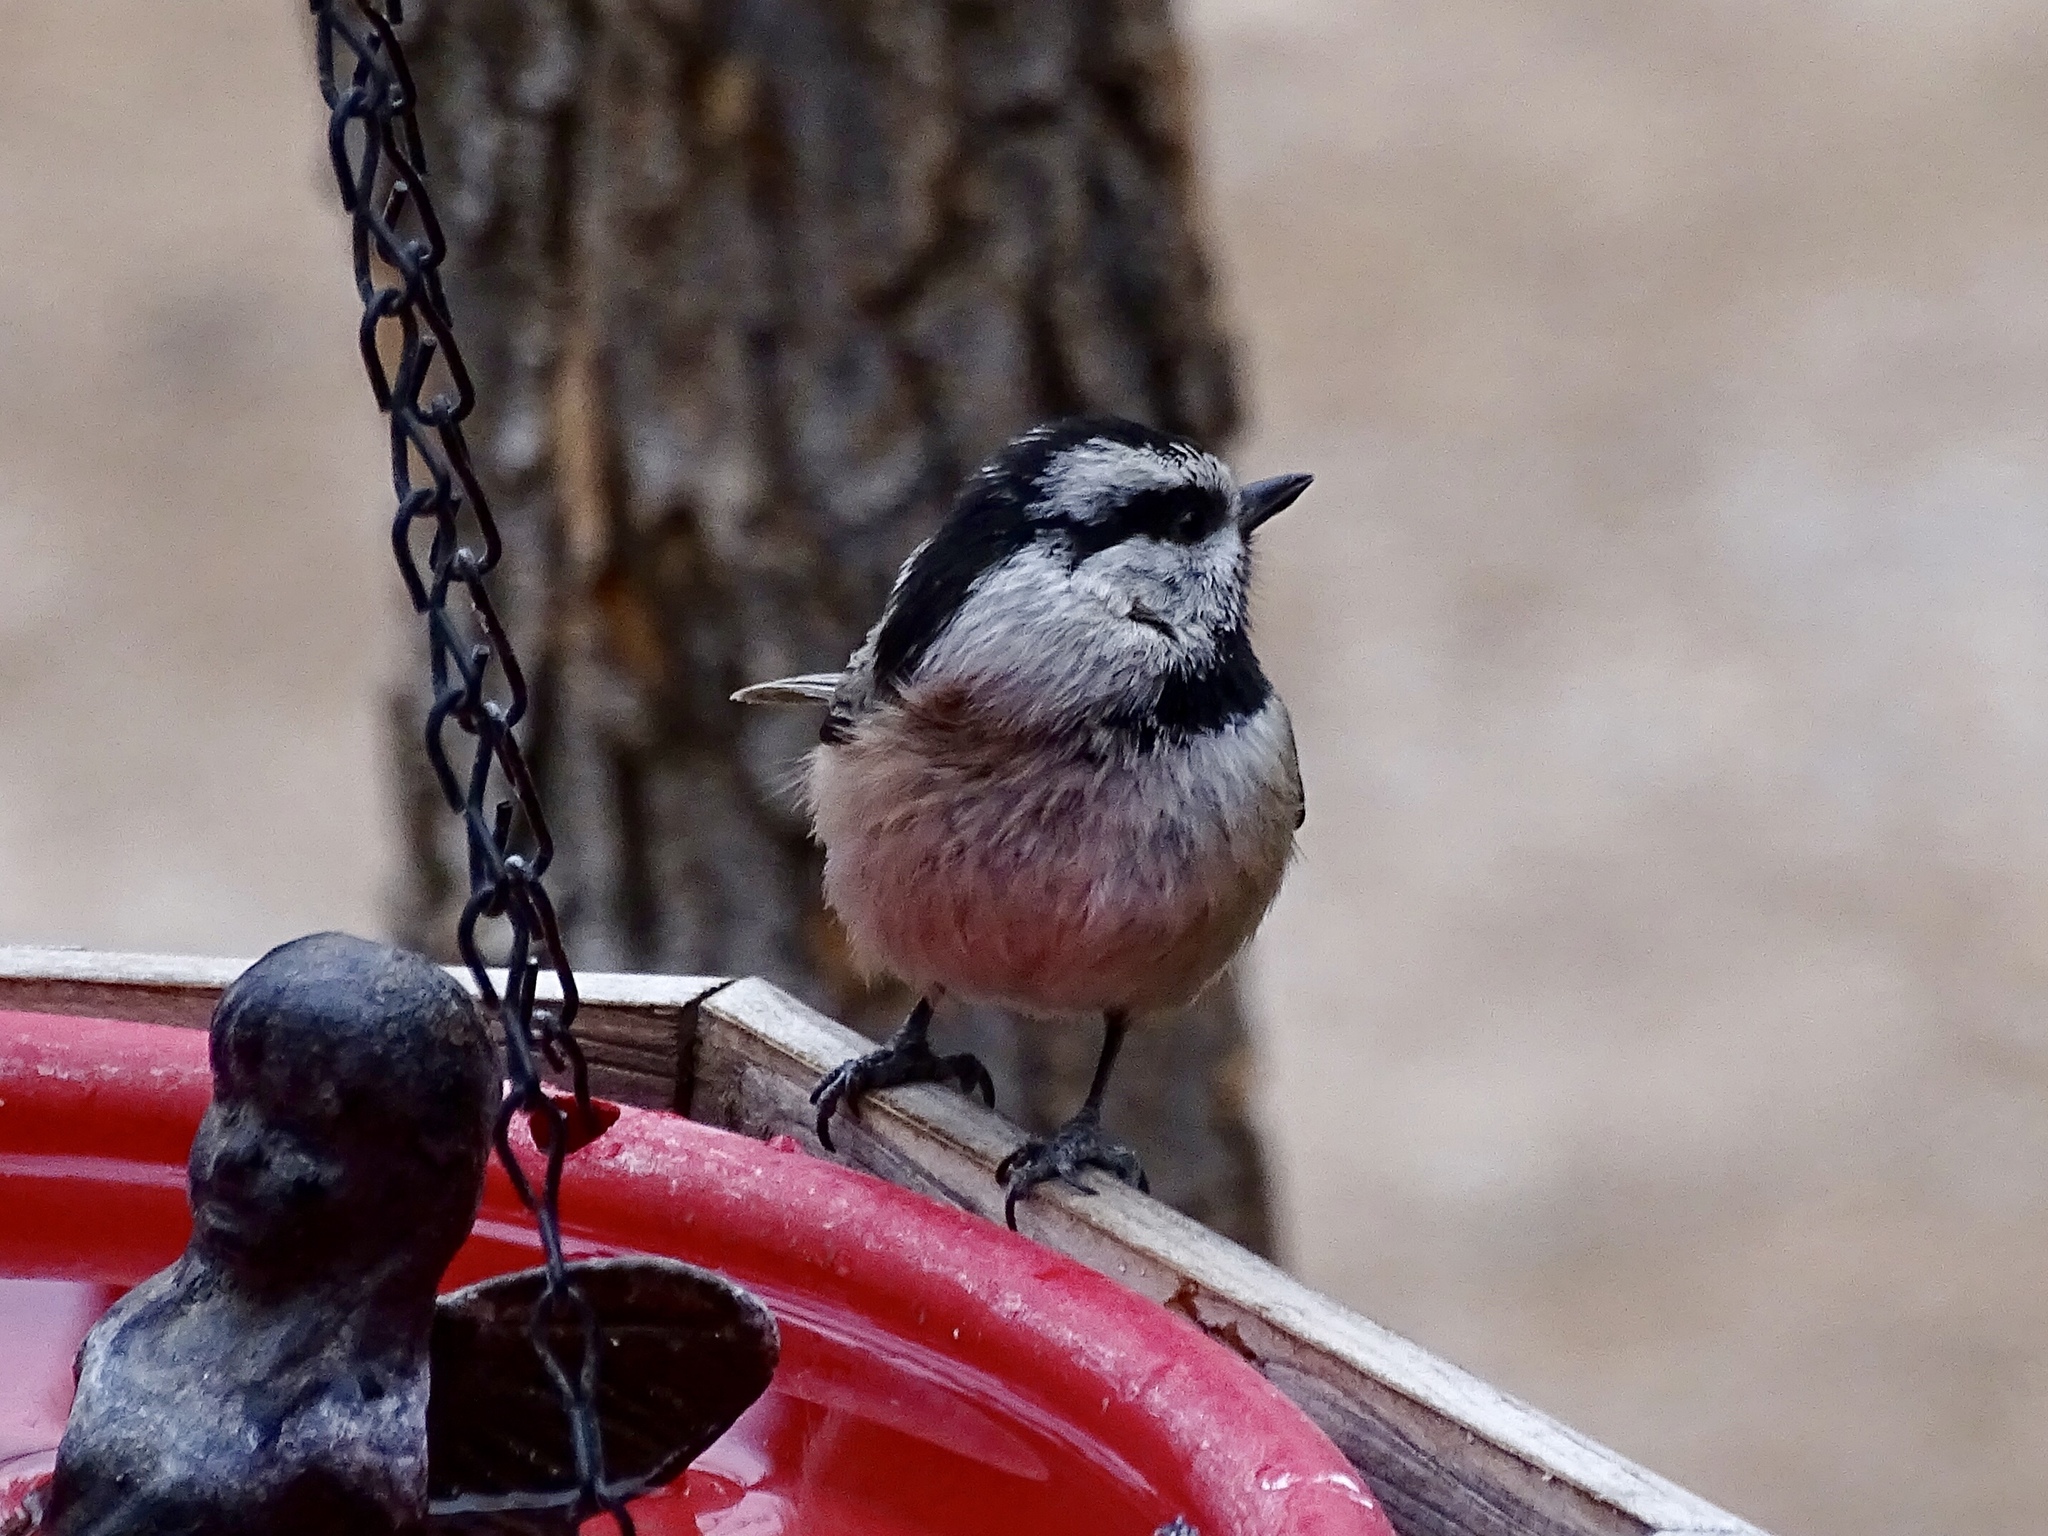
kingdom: Animalia
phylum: Chordata
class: Aves
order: Passeriformes
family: Paridae
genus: Poecile
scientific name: Poecile gambeli
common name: Mountain chickadee
